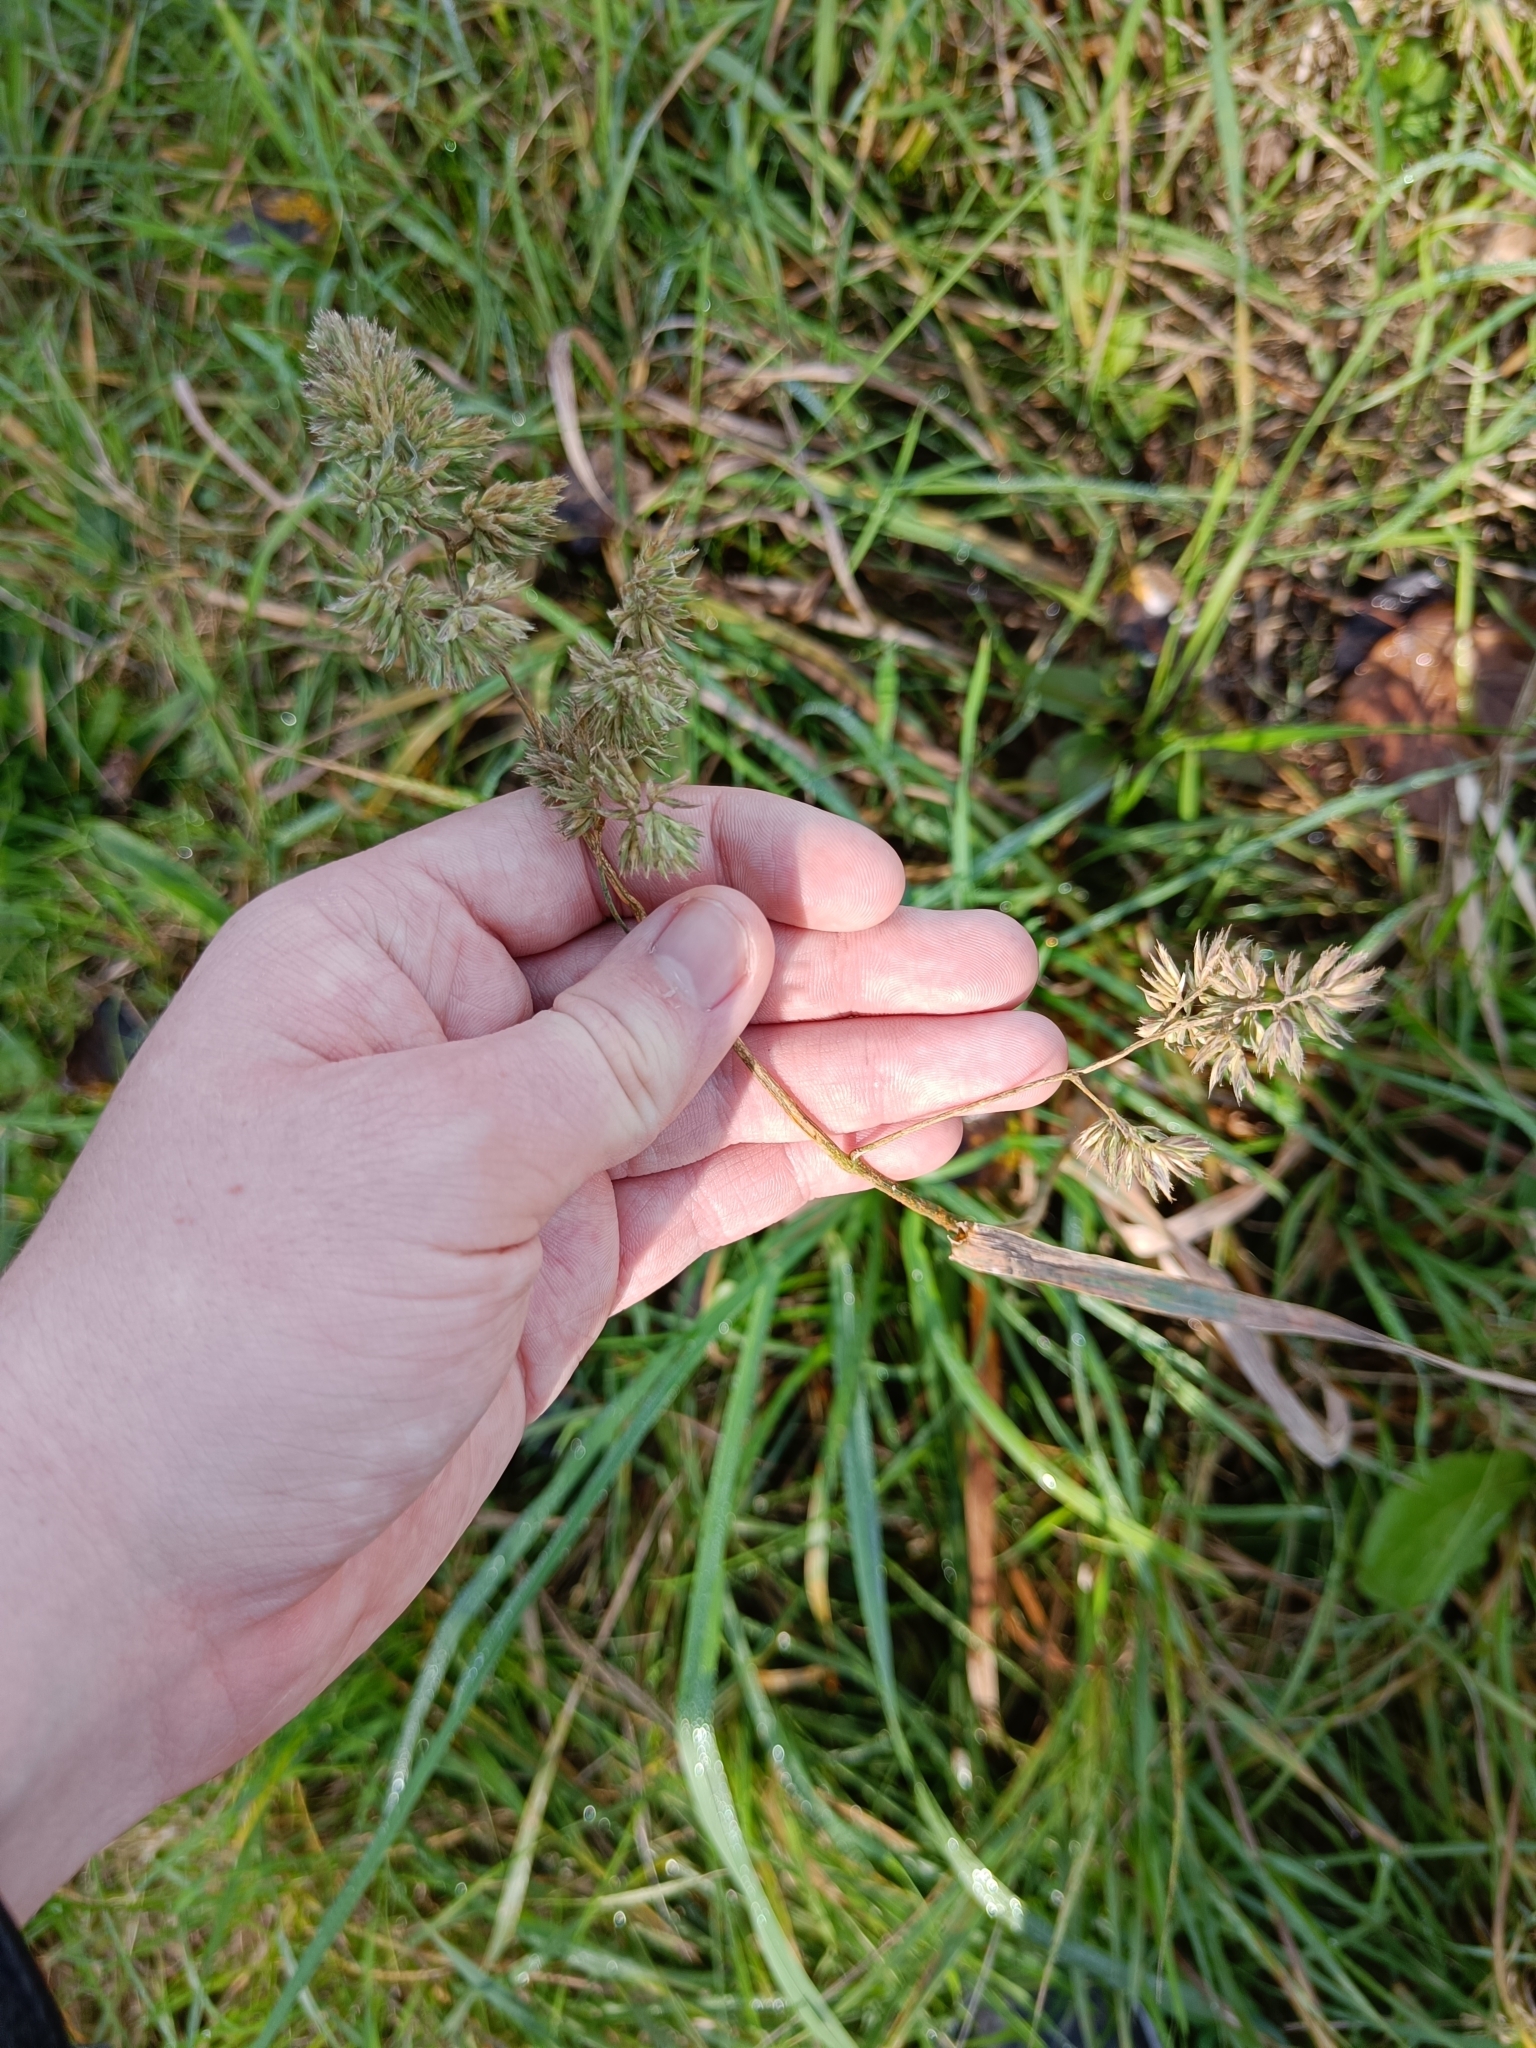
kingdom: Plantae
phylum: Tracheophyta
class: Liliopsida
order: Poales
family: Poaceae
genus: Dactylis
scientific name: Dactylis glomerata
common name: Orchardgrass
